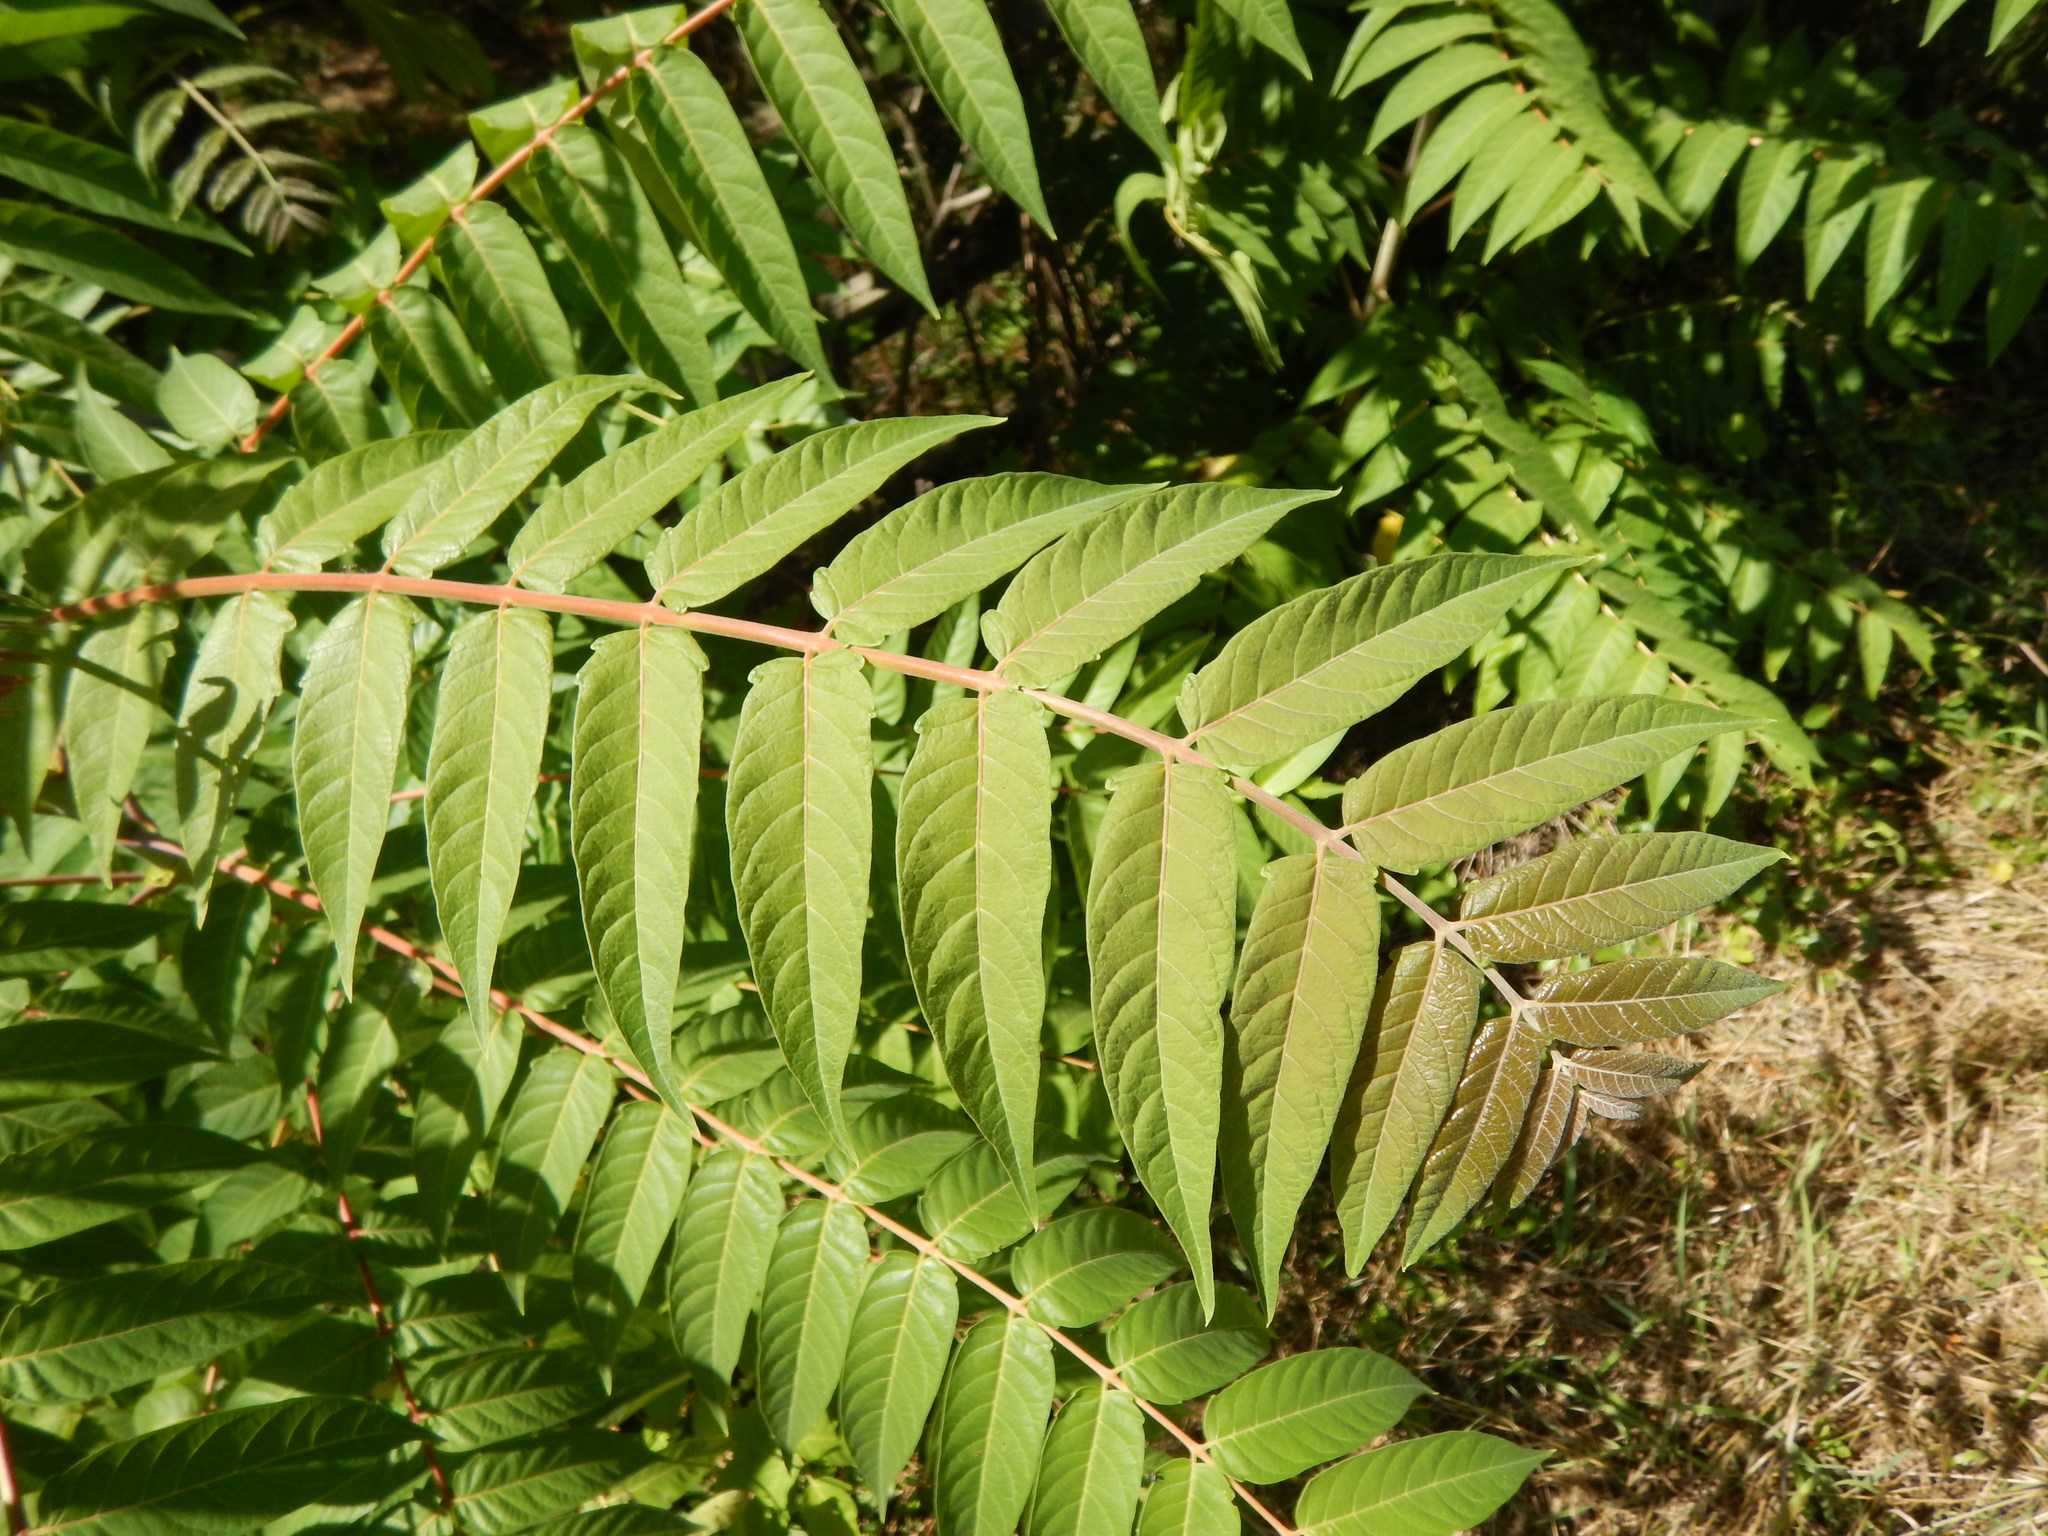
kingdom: Plantae
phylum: Tracheophyta
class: Magnoliopsida
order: Sapindales
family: Simaroubaceae
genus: Ailanthus
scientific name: Ailanthus altissima
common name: Tree-of-heaven
